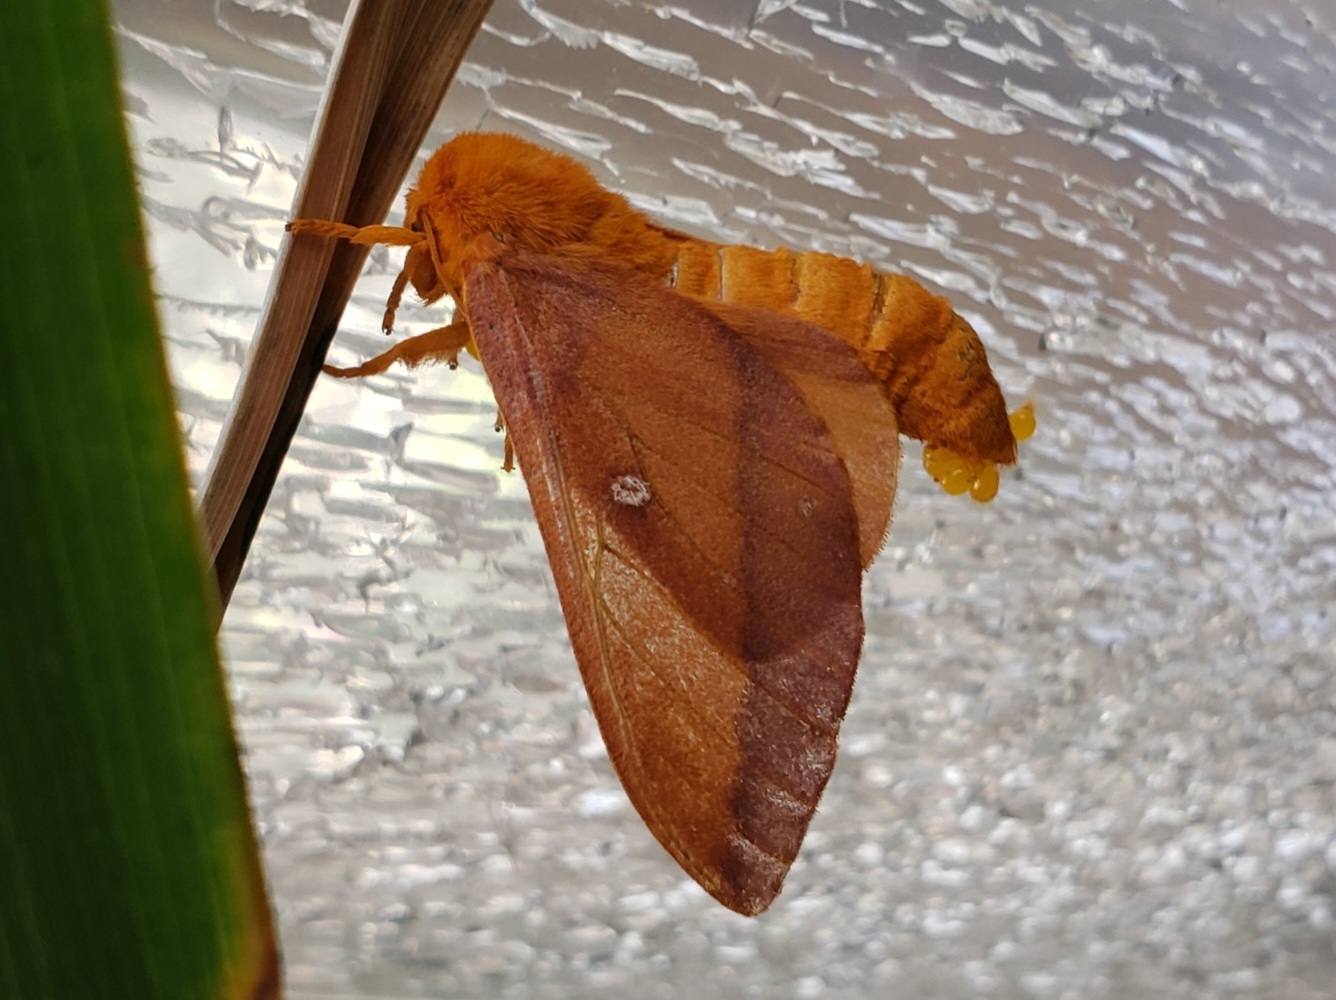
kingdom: Animalia
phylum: Arthropoda
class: Insecta
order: Lepidoptera
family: Saturniidae
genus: Anisota
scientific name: Anisota virginiensis
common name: Pink striped oakworm moth
